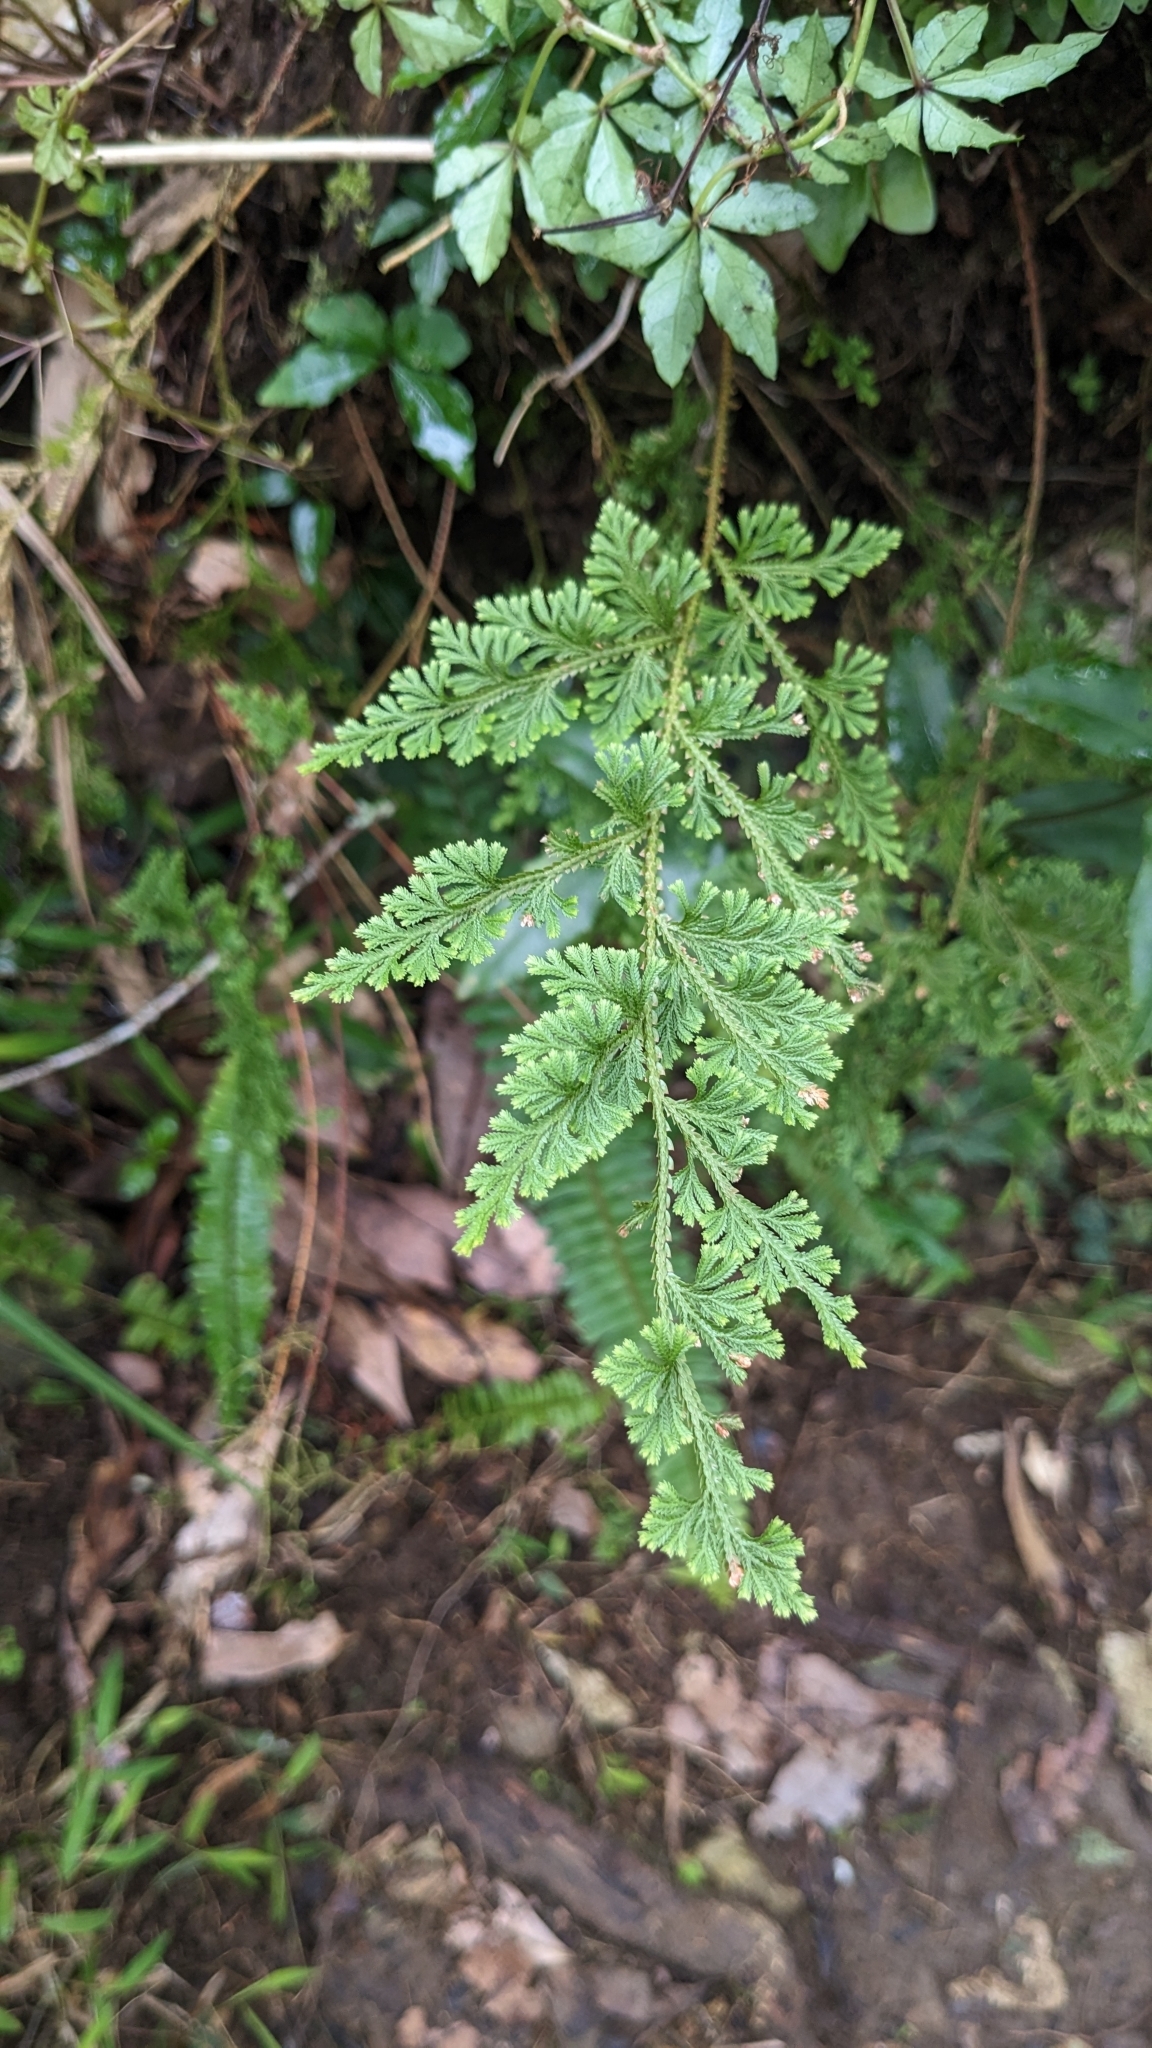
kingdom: Plantae
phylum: Tracheophyta
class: Lycopodiopsida
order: Selaginellales
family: Selaginellaceae
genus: Selaginella
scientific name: Selaginella moellendorffii
